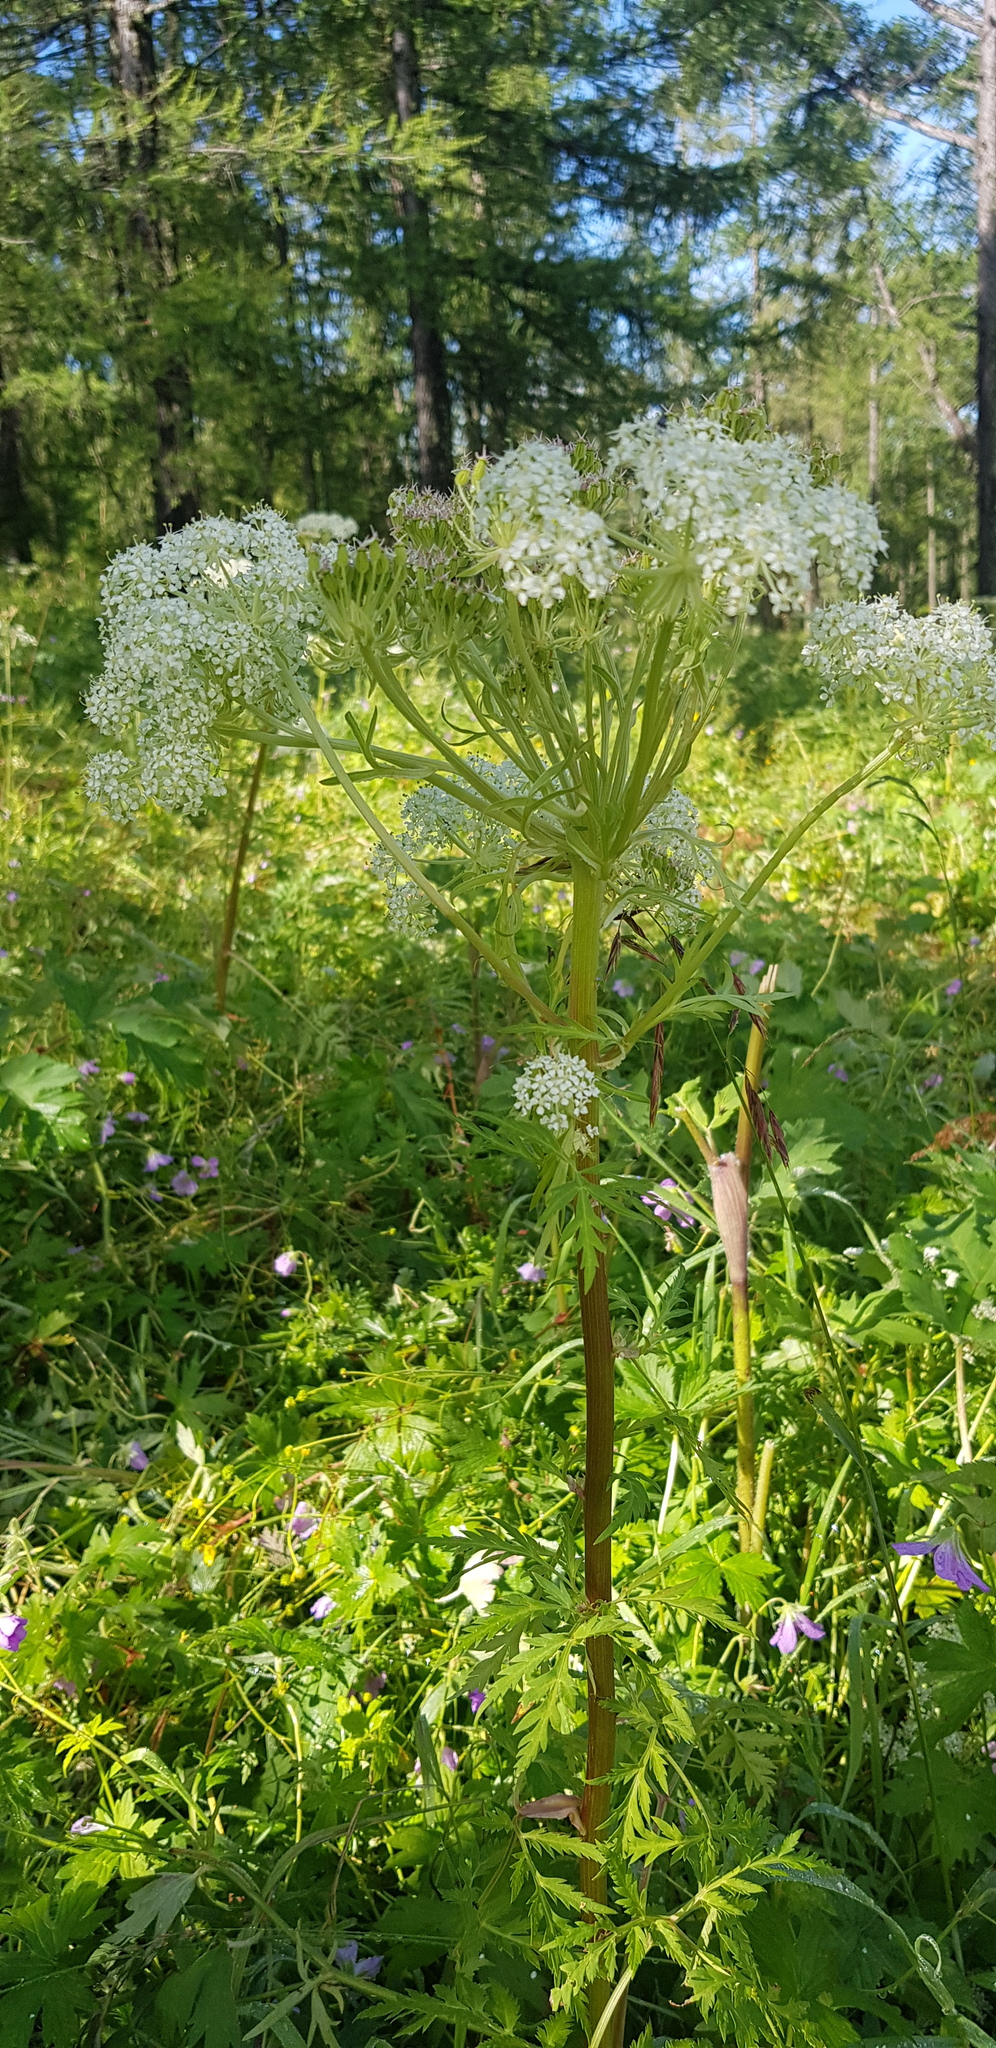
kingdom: Plantae
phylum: Tracheophyta
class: Magnoliopsida
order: Apiales
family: Apiaceae
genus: Pleurospermum
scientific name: Pleurospermum uralense
